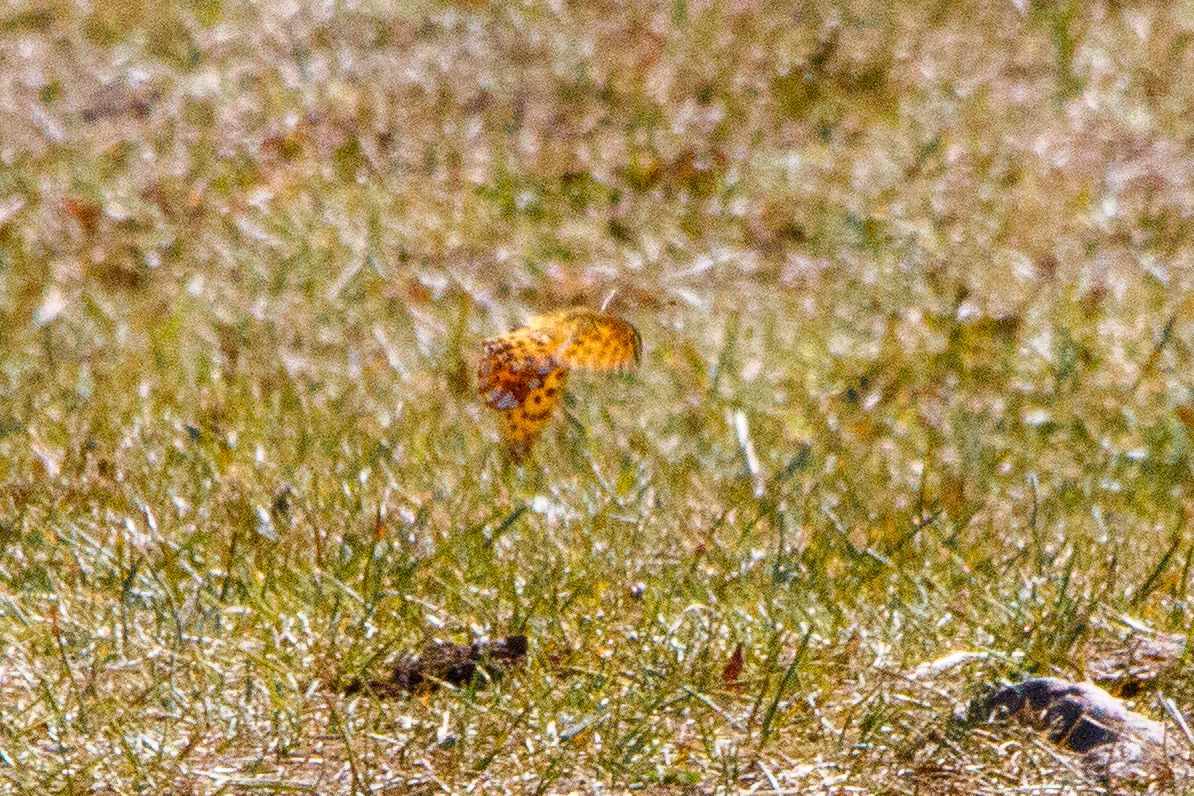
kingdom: Animalia
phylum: Arthropoda
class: Insecta
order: Lepidoptera
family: Nymphalidae
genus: Issoria
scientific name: Issoria lathonia
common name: Queen of spain fritillary
